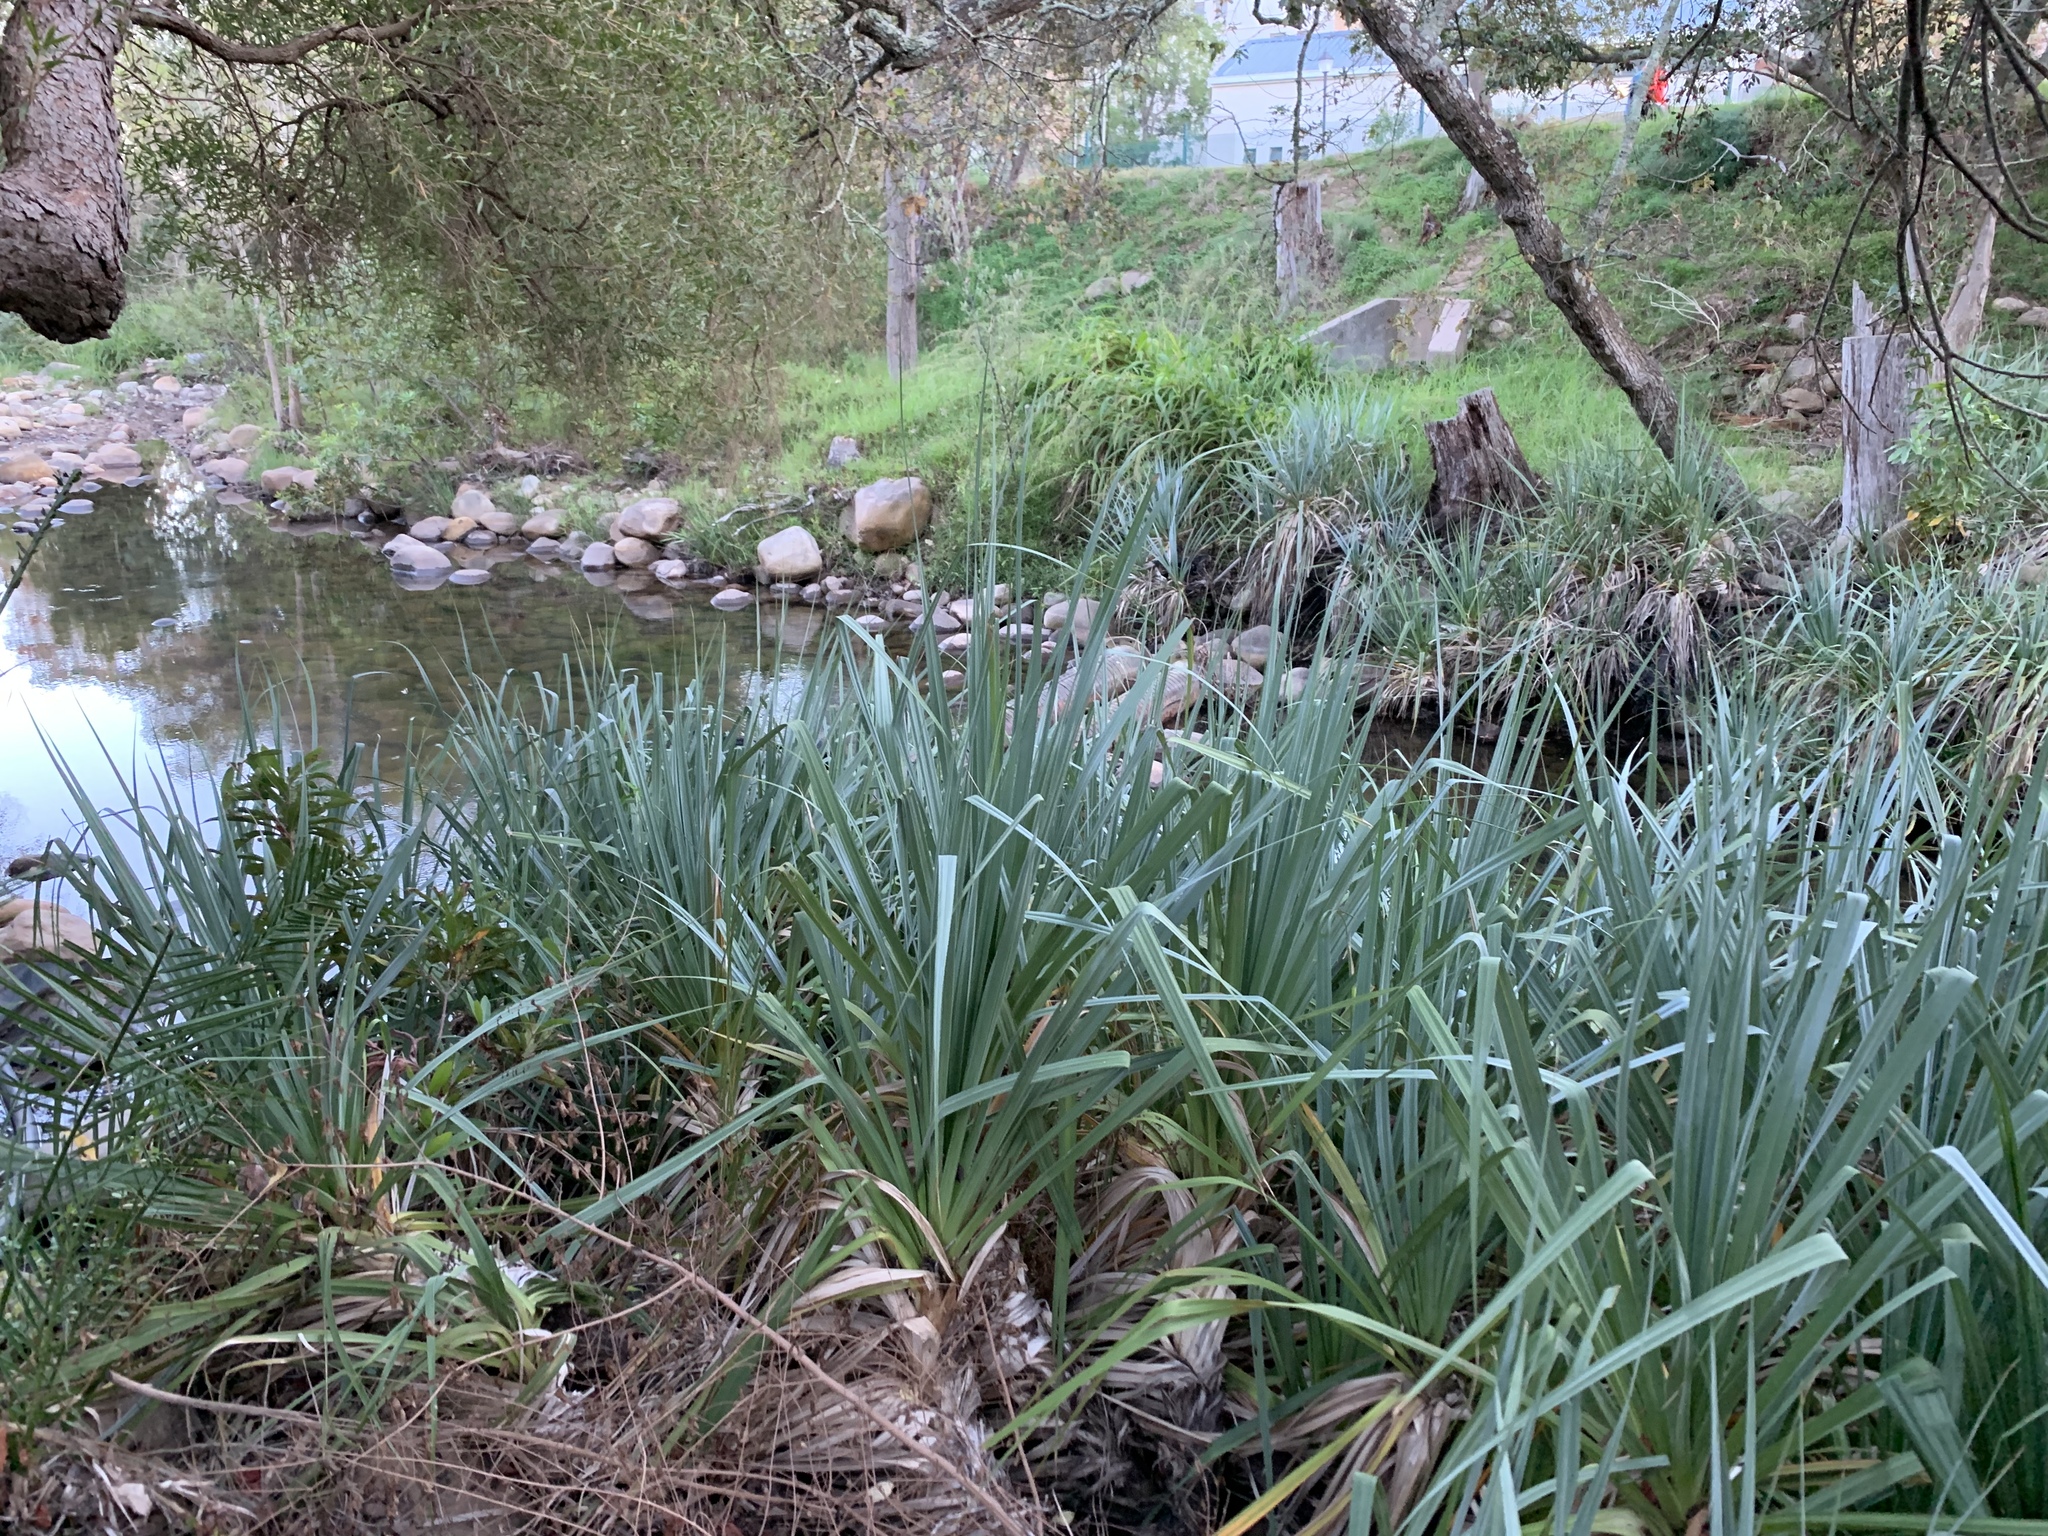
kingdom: Plantae
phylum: Tracheophyta
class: Liliopsida
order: Poales
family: Thurniaceae
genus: Prionium
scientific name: Prionium serratum
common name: Palmiet
